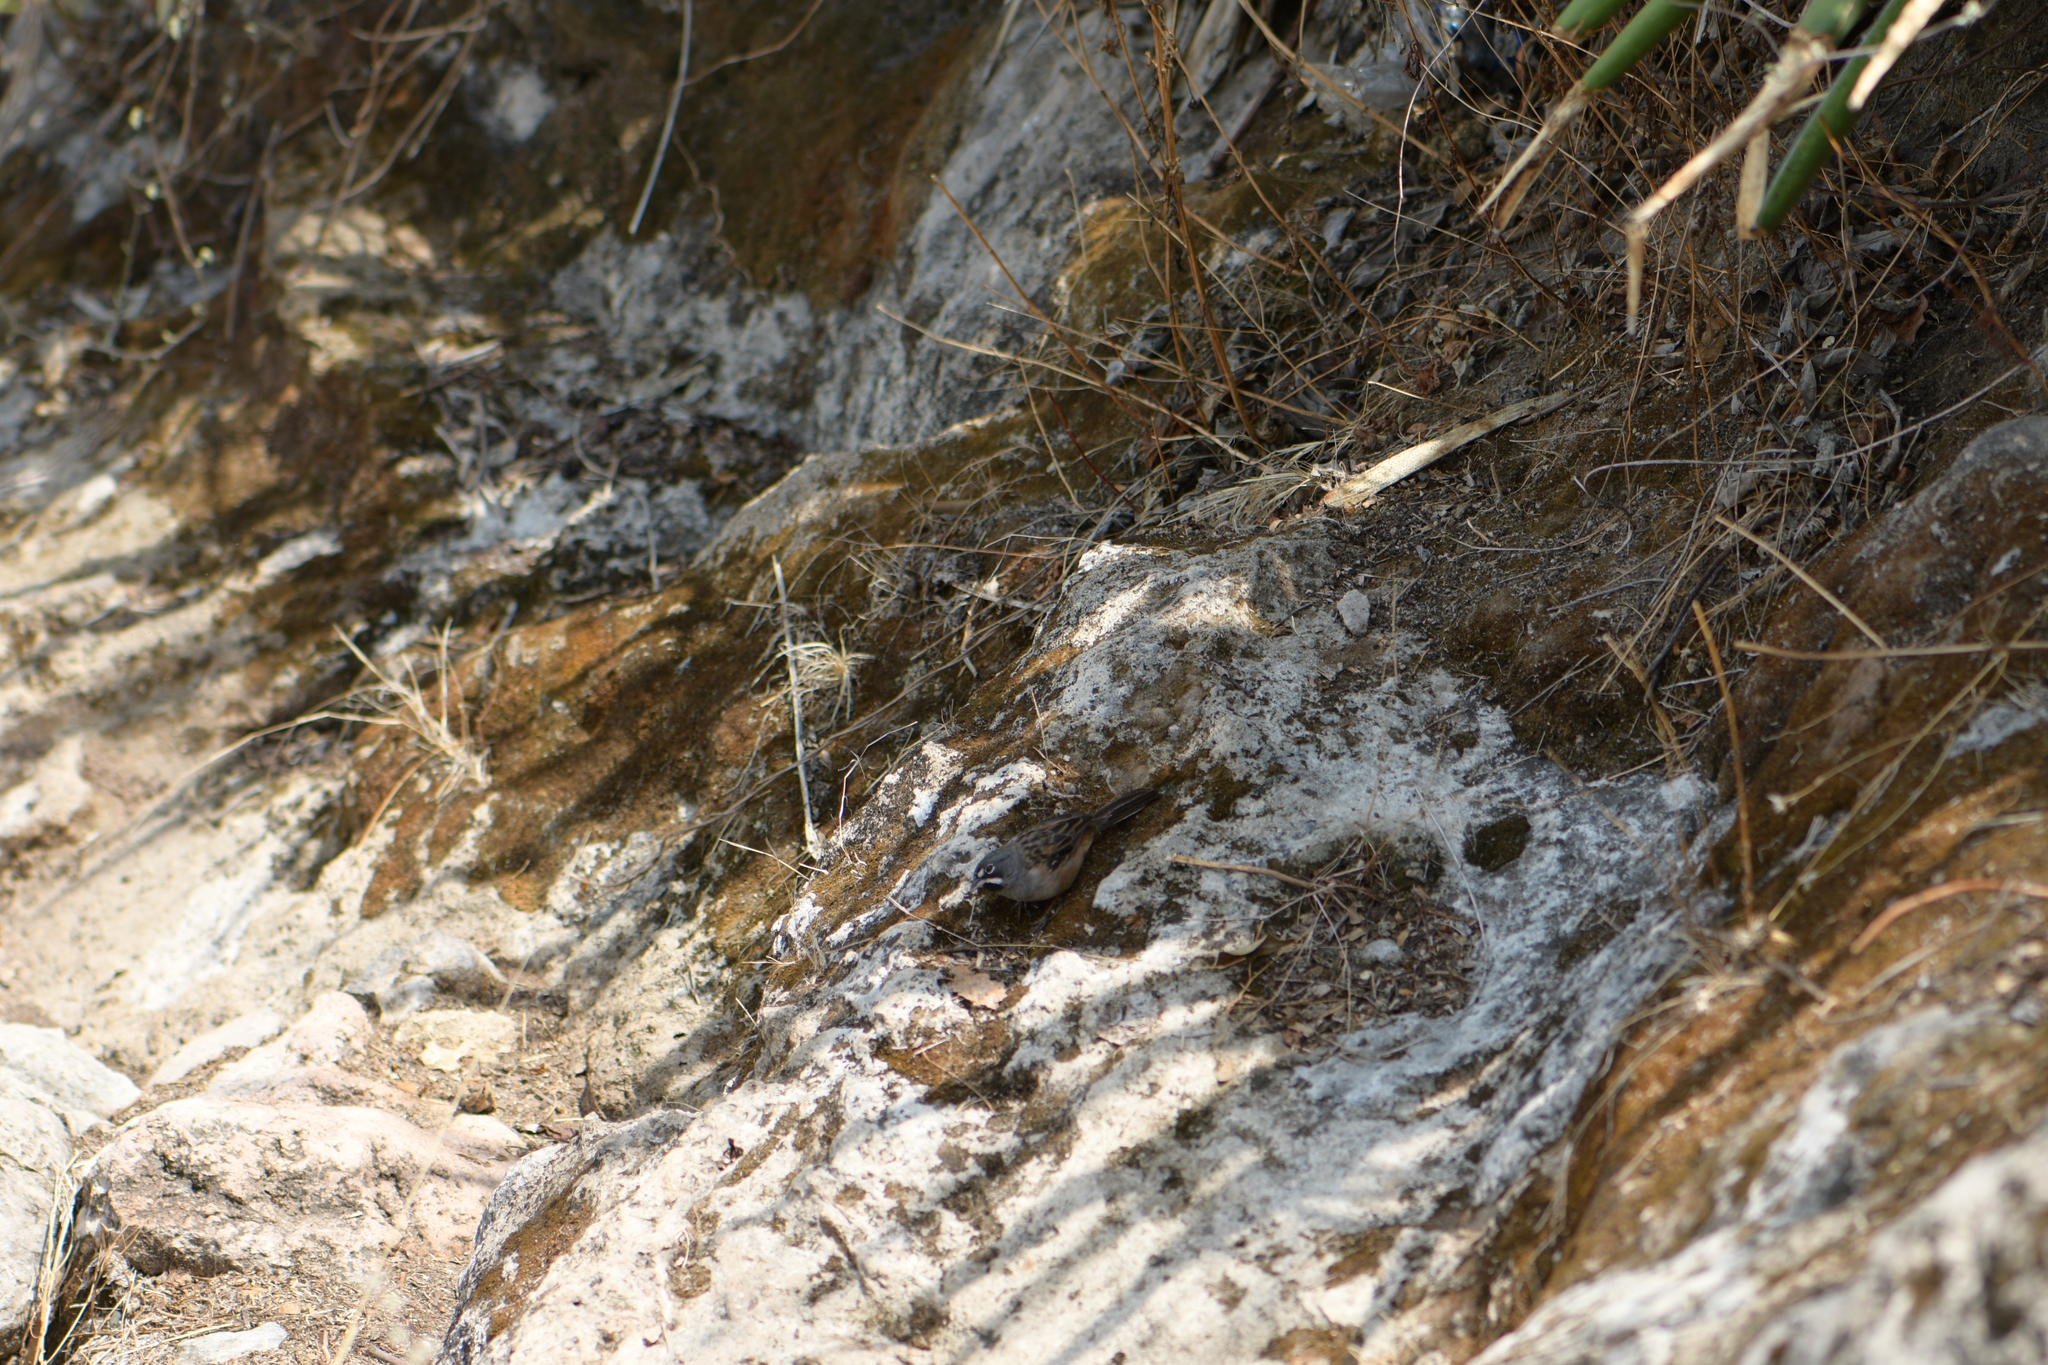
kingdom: Animalia
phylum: Chordata
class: Aves
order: Passeriformes
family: Passerellidae
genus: Peucaea
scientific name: Peucaea mystacalis
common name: Bridled sparrow
